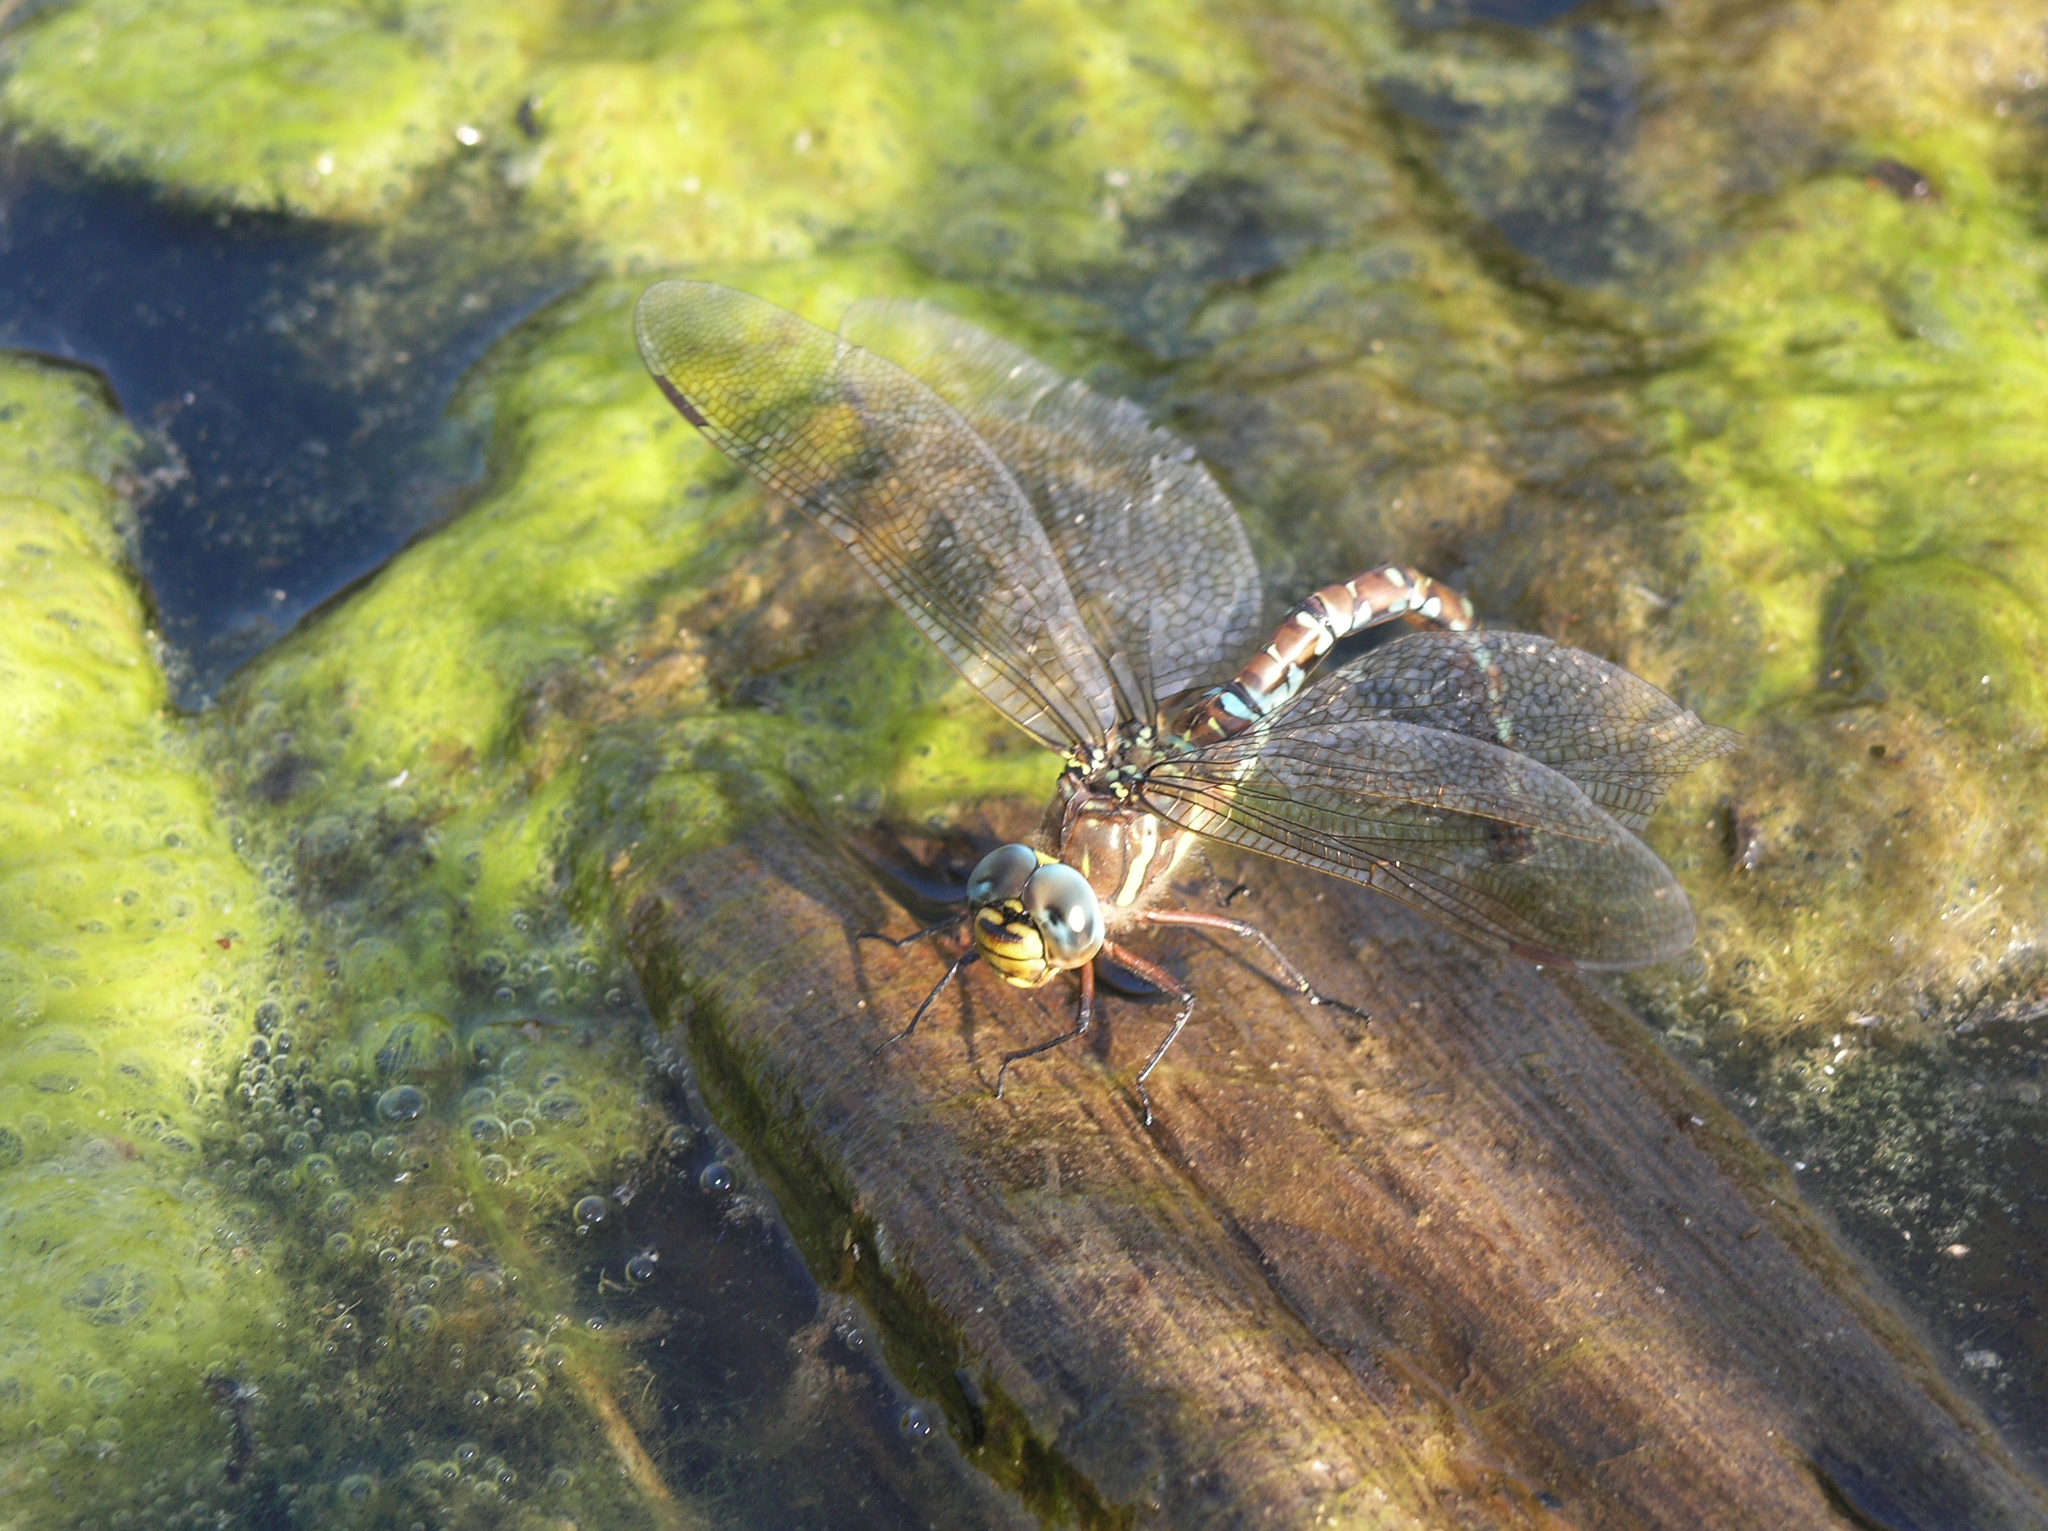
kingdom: Animalia
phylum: Arthropoda
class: Insecta
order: Odonata
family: Aeshnidae
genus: Aeshna
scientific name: Aeshna juncea
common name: Moorland hawker
